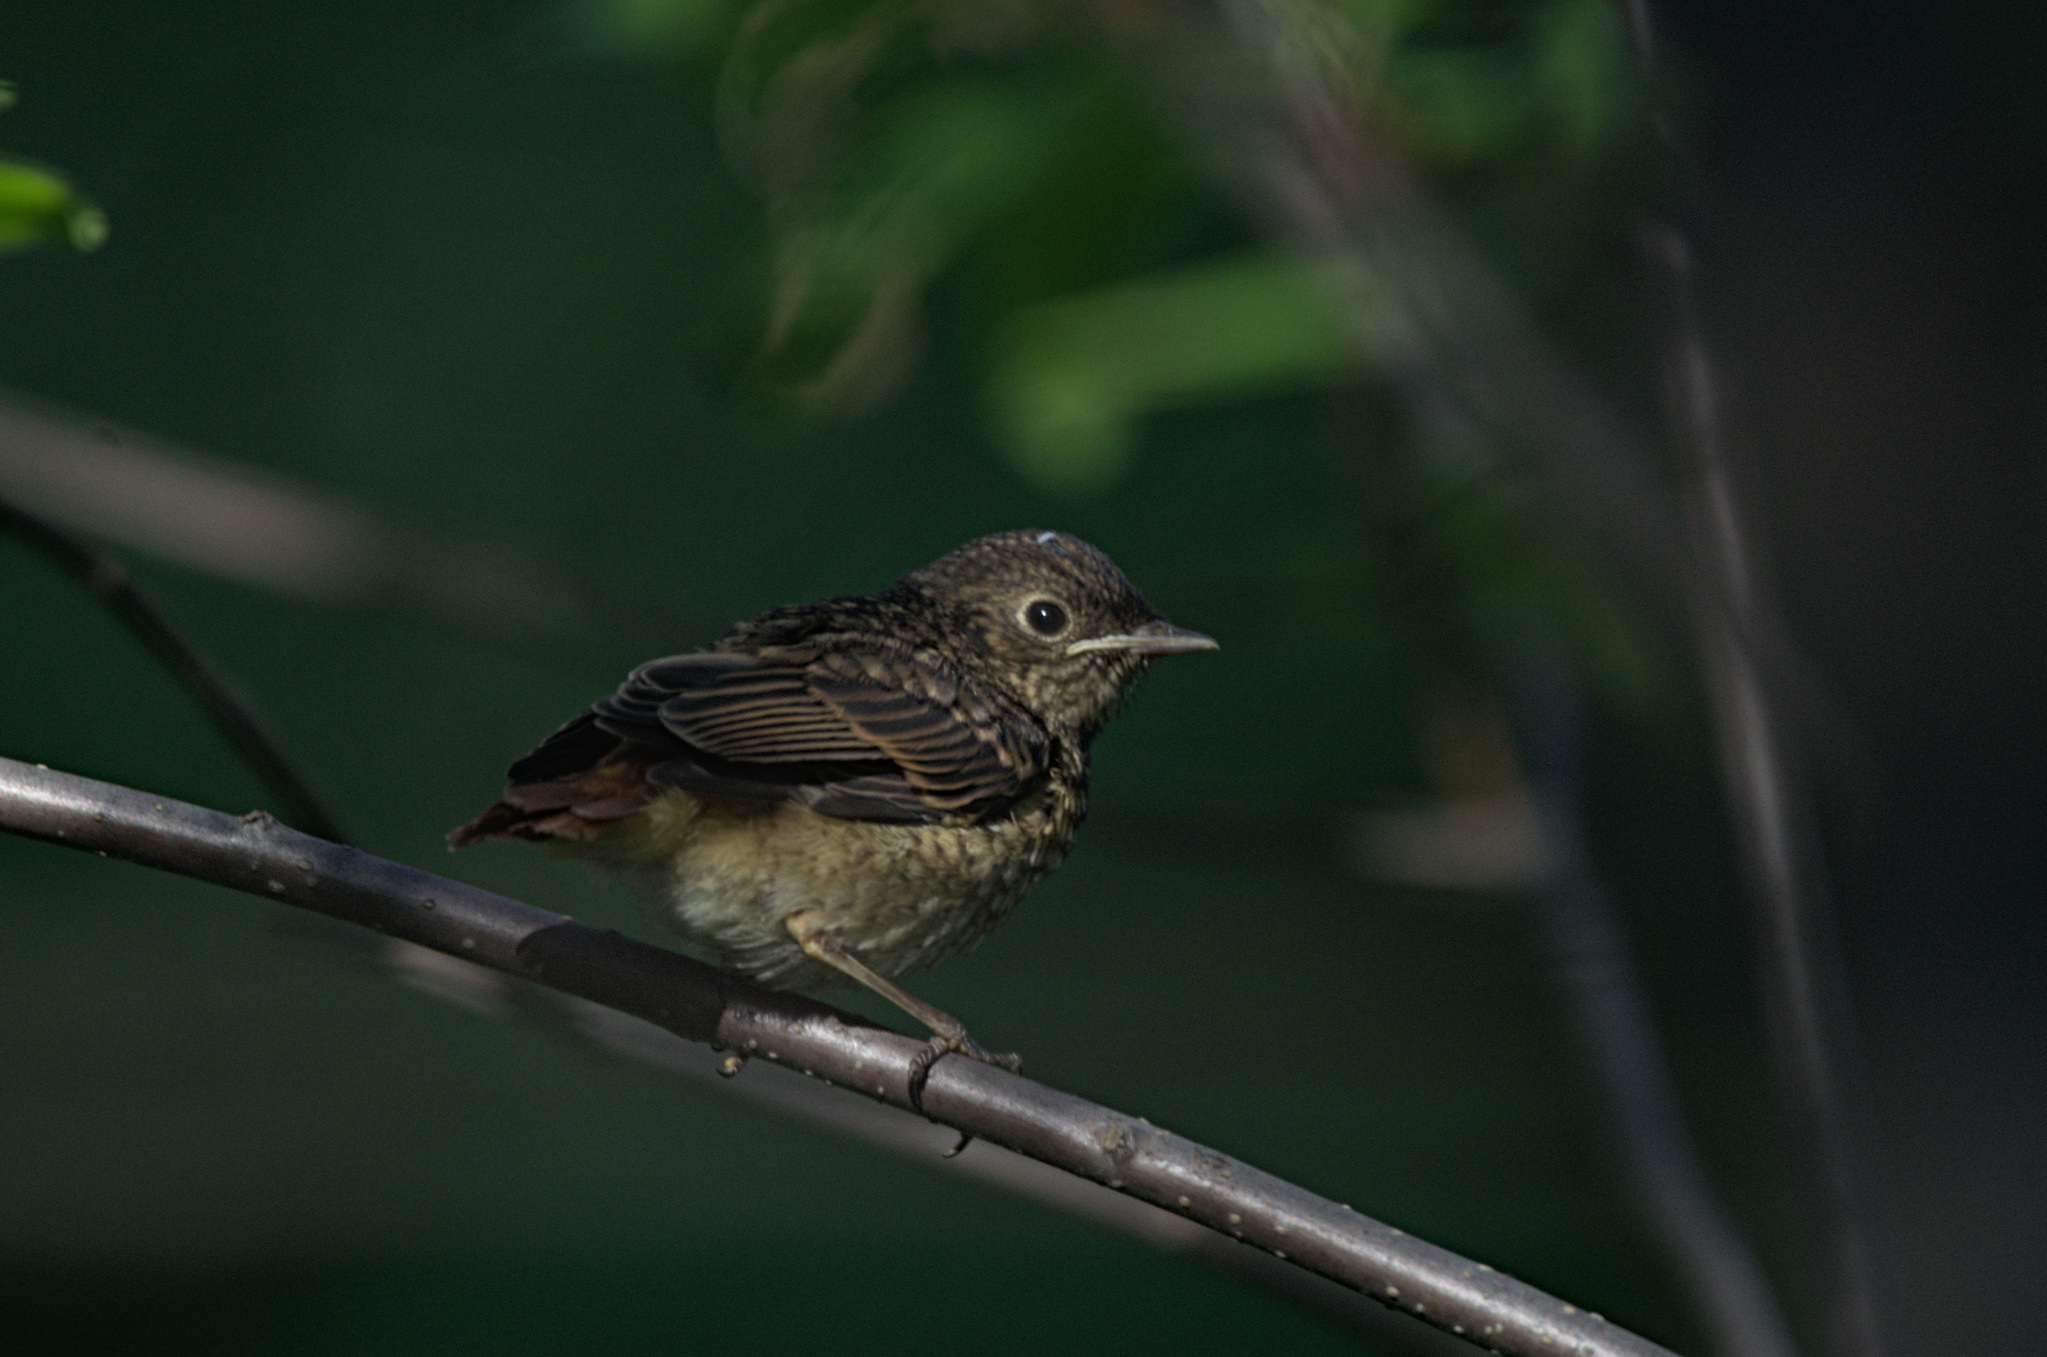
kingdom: Animalia
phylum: Chordata
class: Aves
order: Passeriformes
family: Muscicapidae
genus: Phoenicurus
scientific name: Phoenicurus phoenicurus
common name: Common redstart
